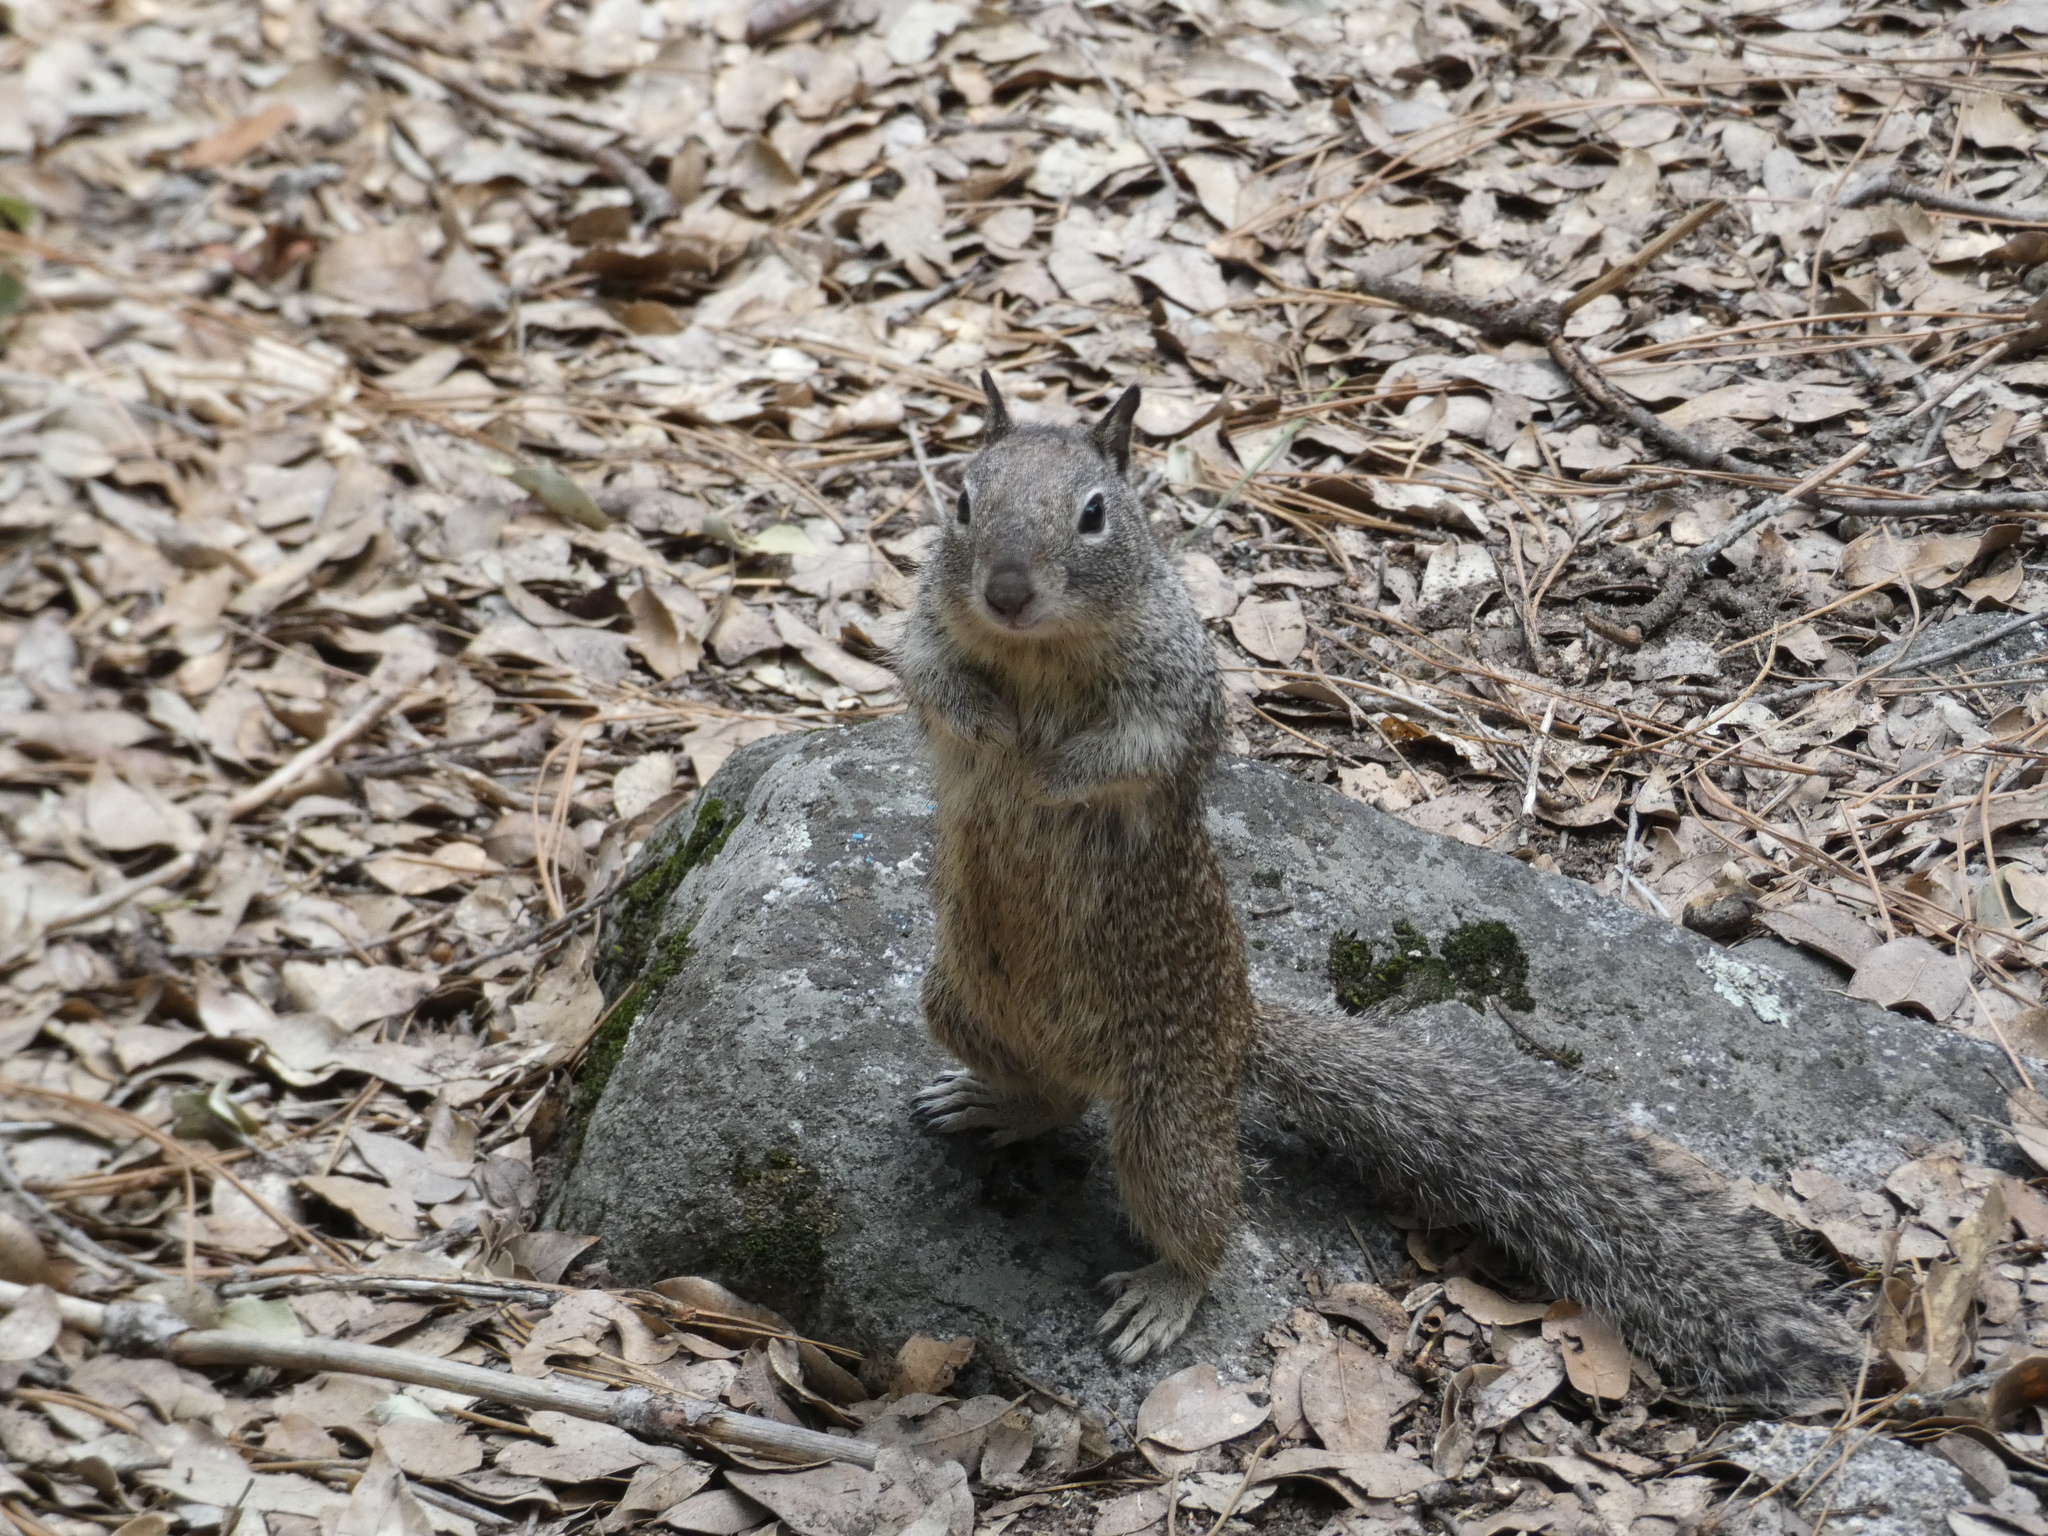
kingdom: Animalia
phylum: Chordata
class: Mammalia
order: Rodentia
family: Sciuridae
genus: Otospermophilus
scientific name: Otospermophilus beecheyi
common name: California ground squirrel
